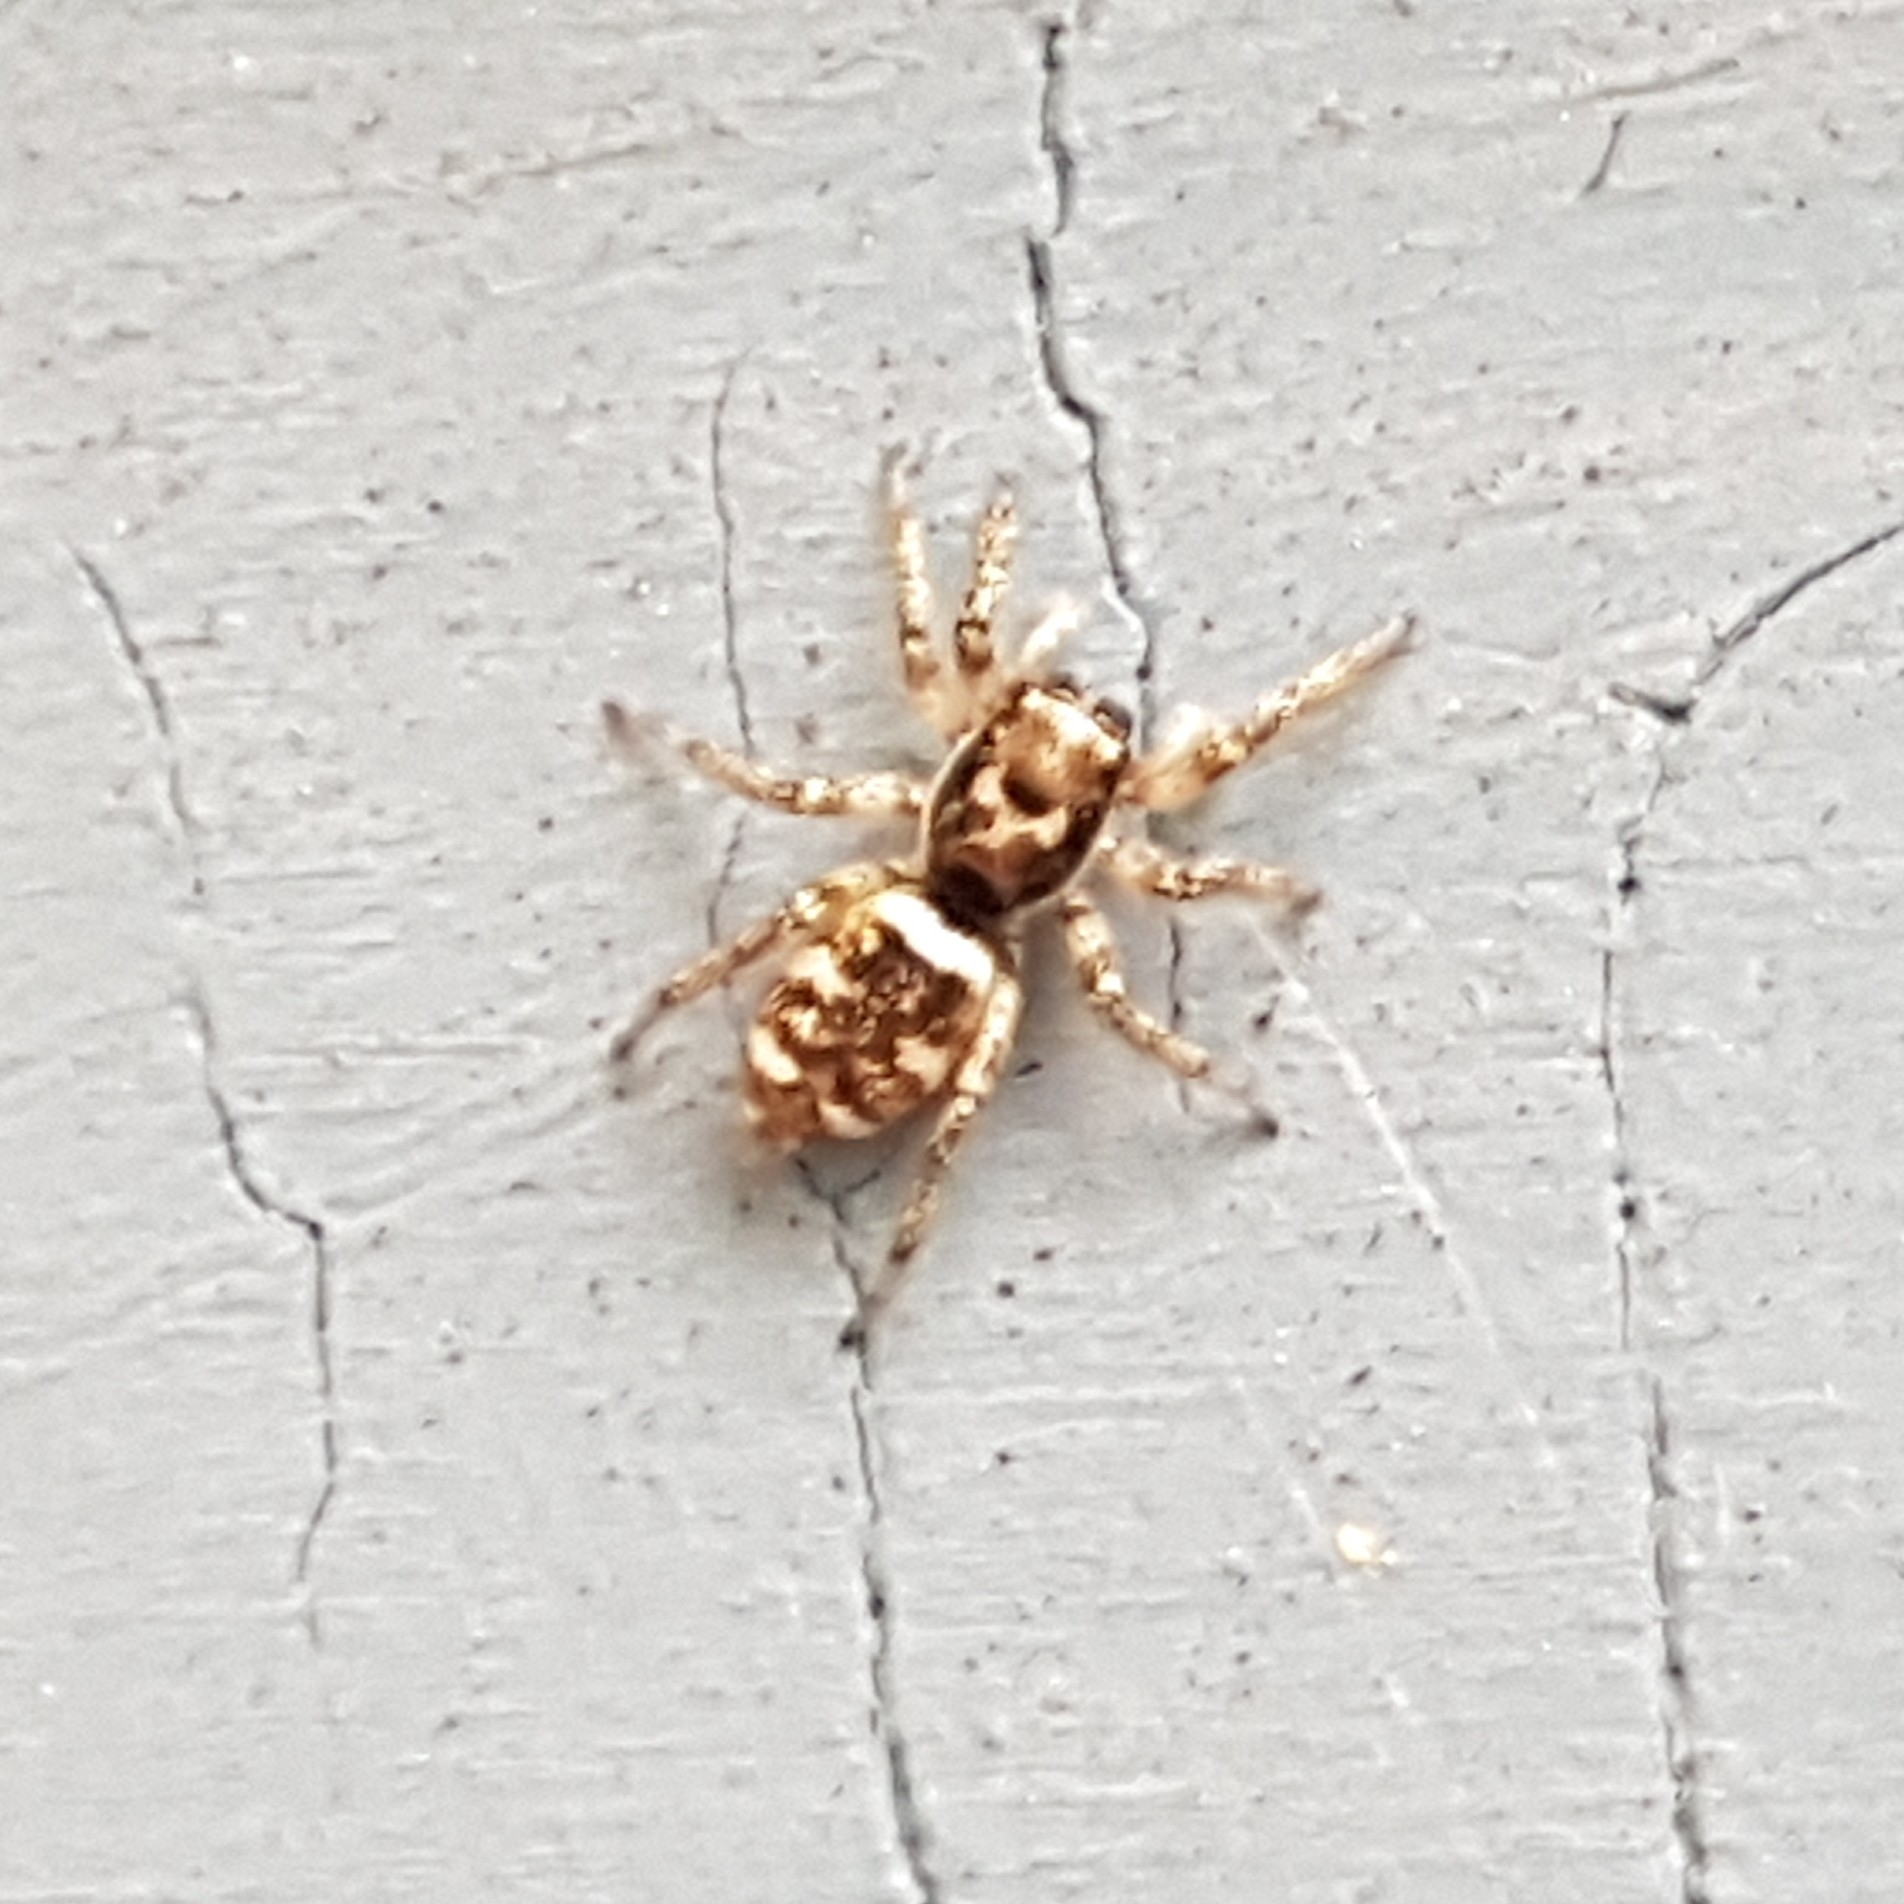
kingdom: Animalia
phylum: Arthropoda
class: Arachnida
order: Araneae
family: Salticidae
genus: Salticus
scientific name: Salticus scenicus
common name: Zebra jumper
